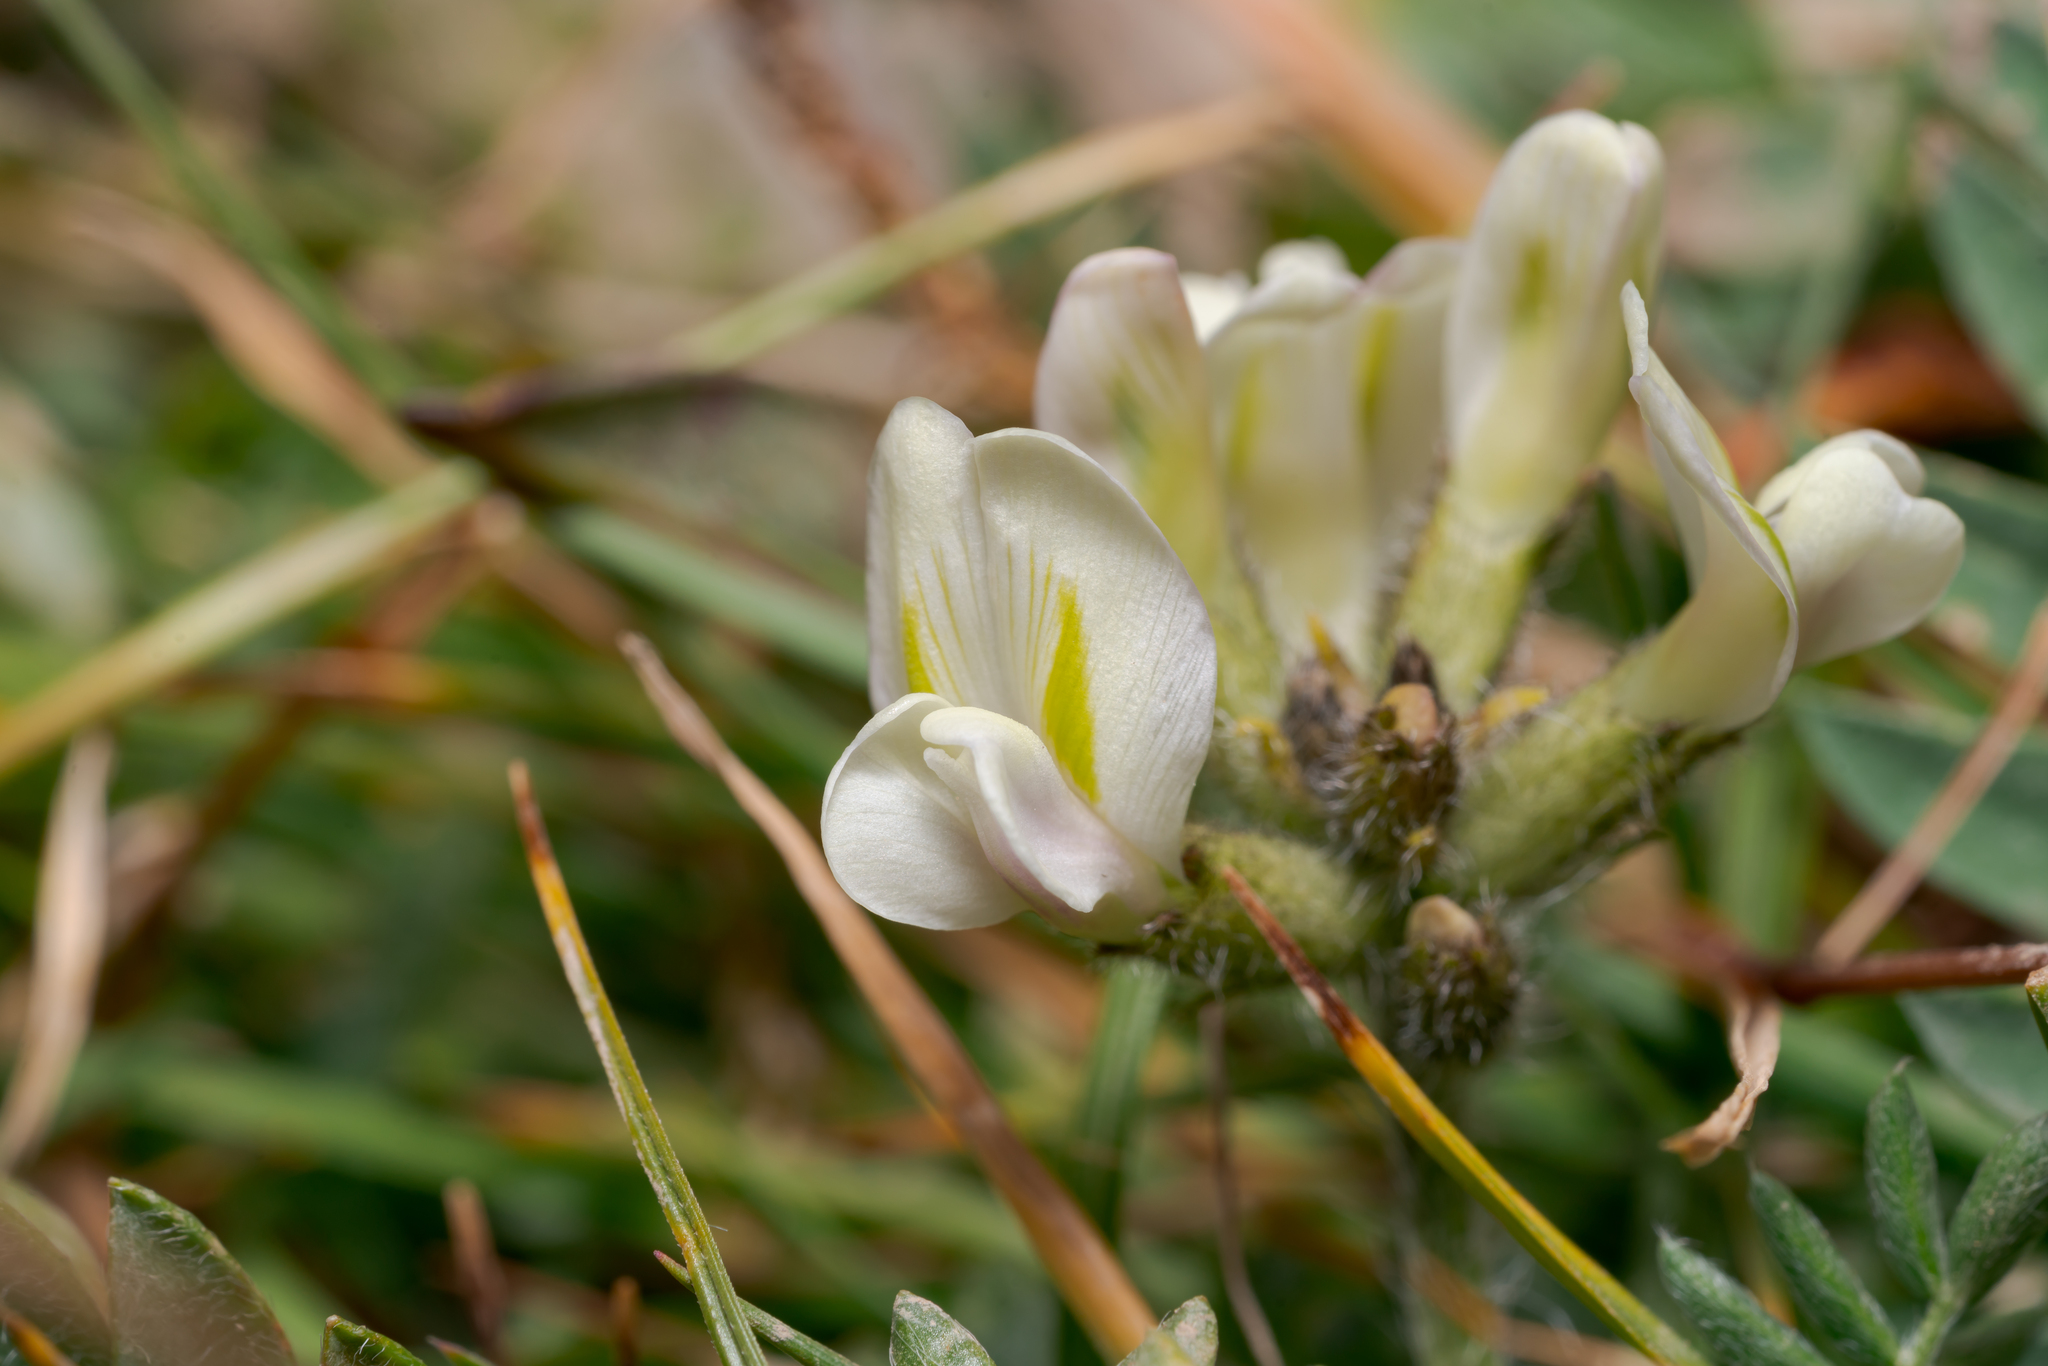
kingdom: Plantae
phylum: Tracheophyta
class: Magnoliopsida
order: Fabales
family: Fabaceae
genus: Oxytropis
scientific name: Oxytropis campestris
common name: Field locoweed
